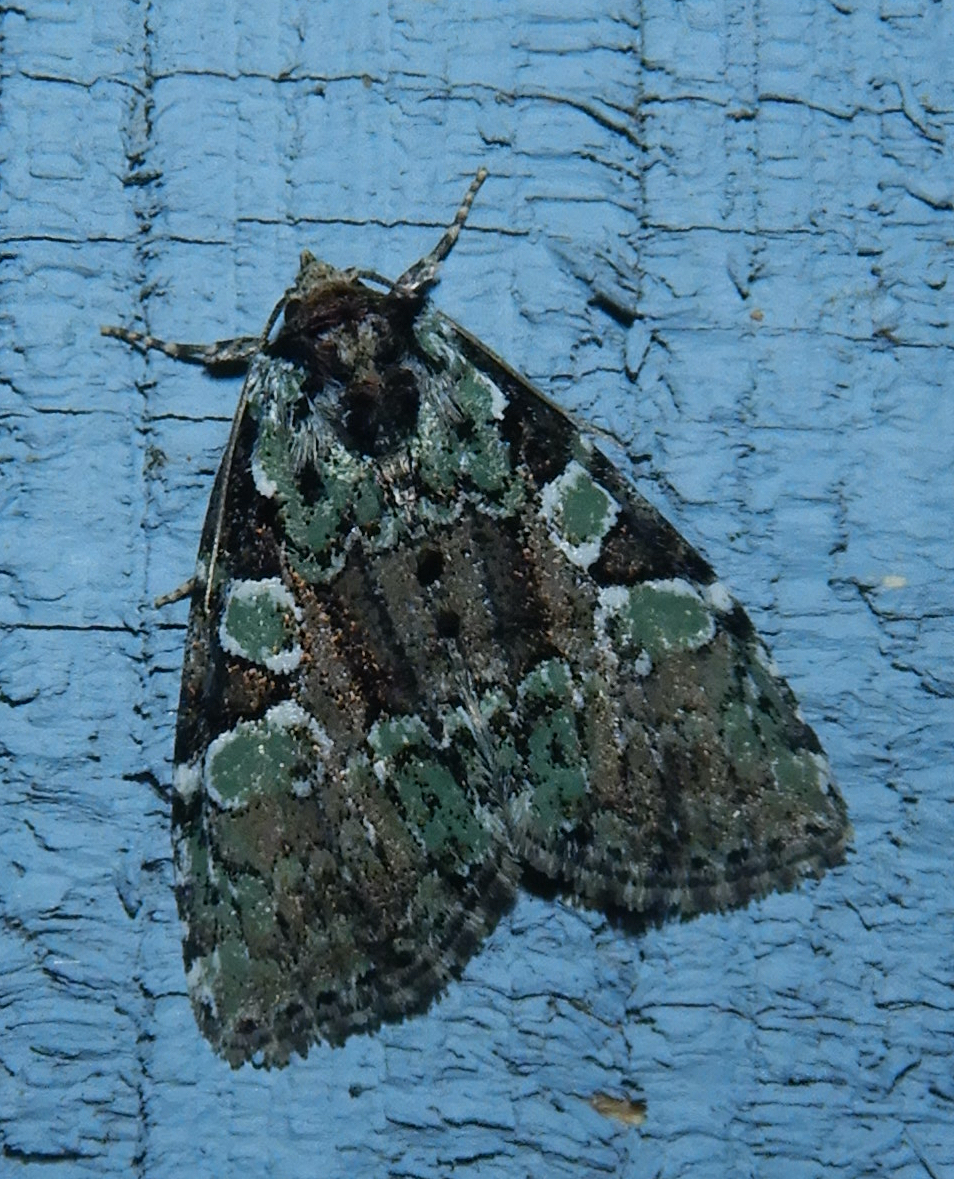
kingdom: Animalia
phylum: Arthropoda
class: Insecta
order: Lepidoptera
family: Noctuidae
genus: Leuconycta
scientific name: Leuconycta lepidula
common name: Marbled-green leuconycta moth
